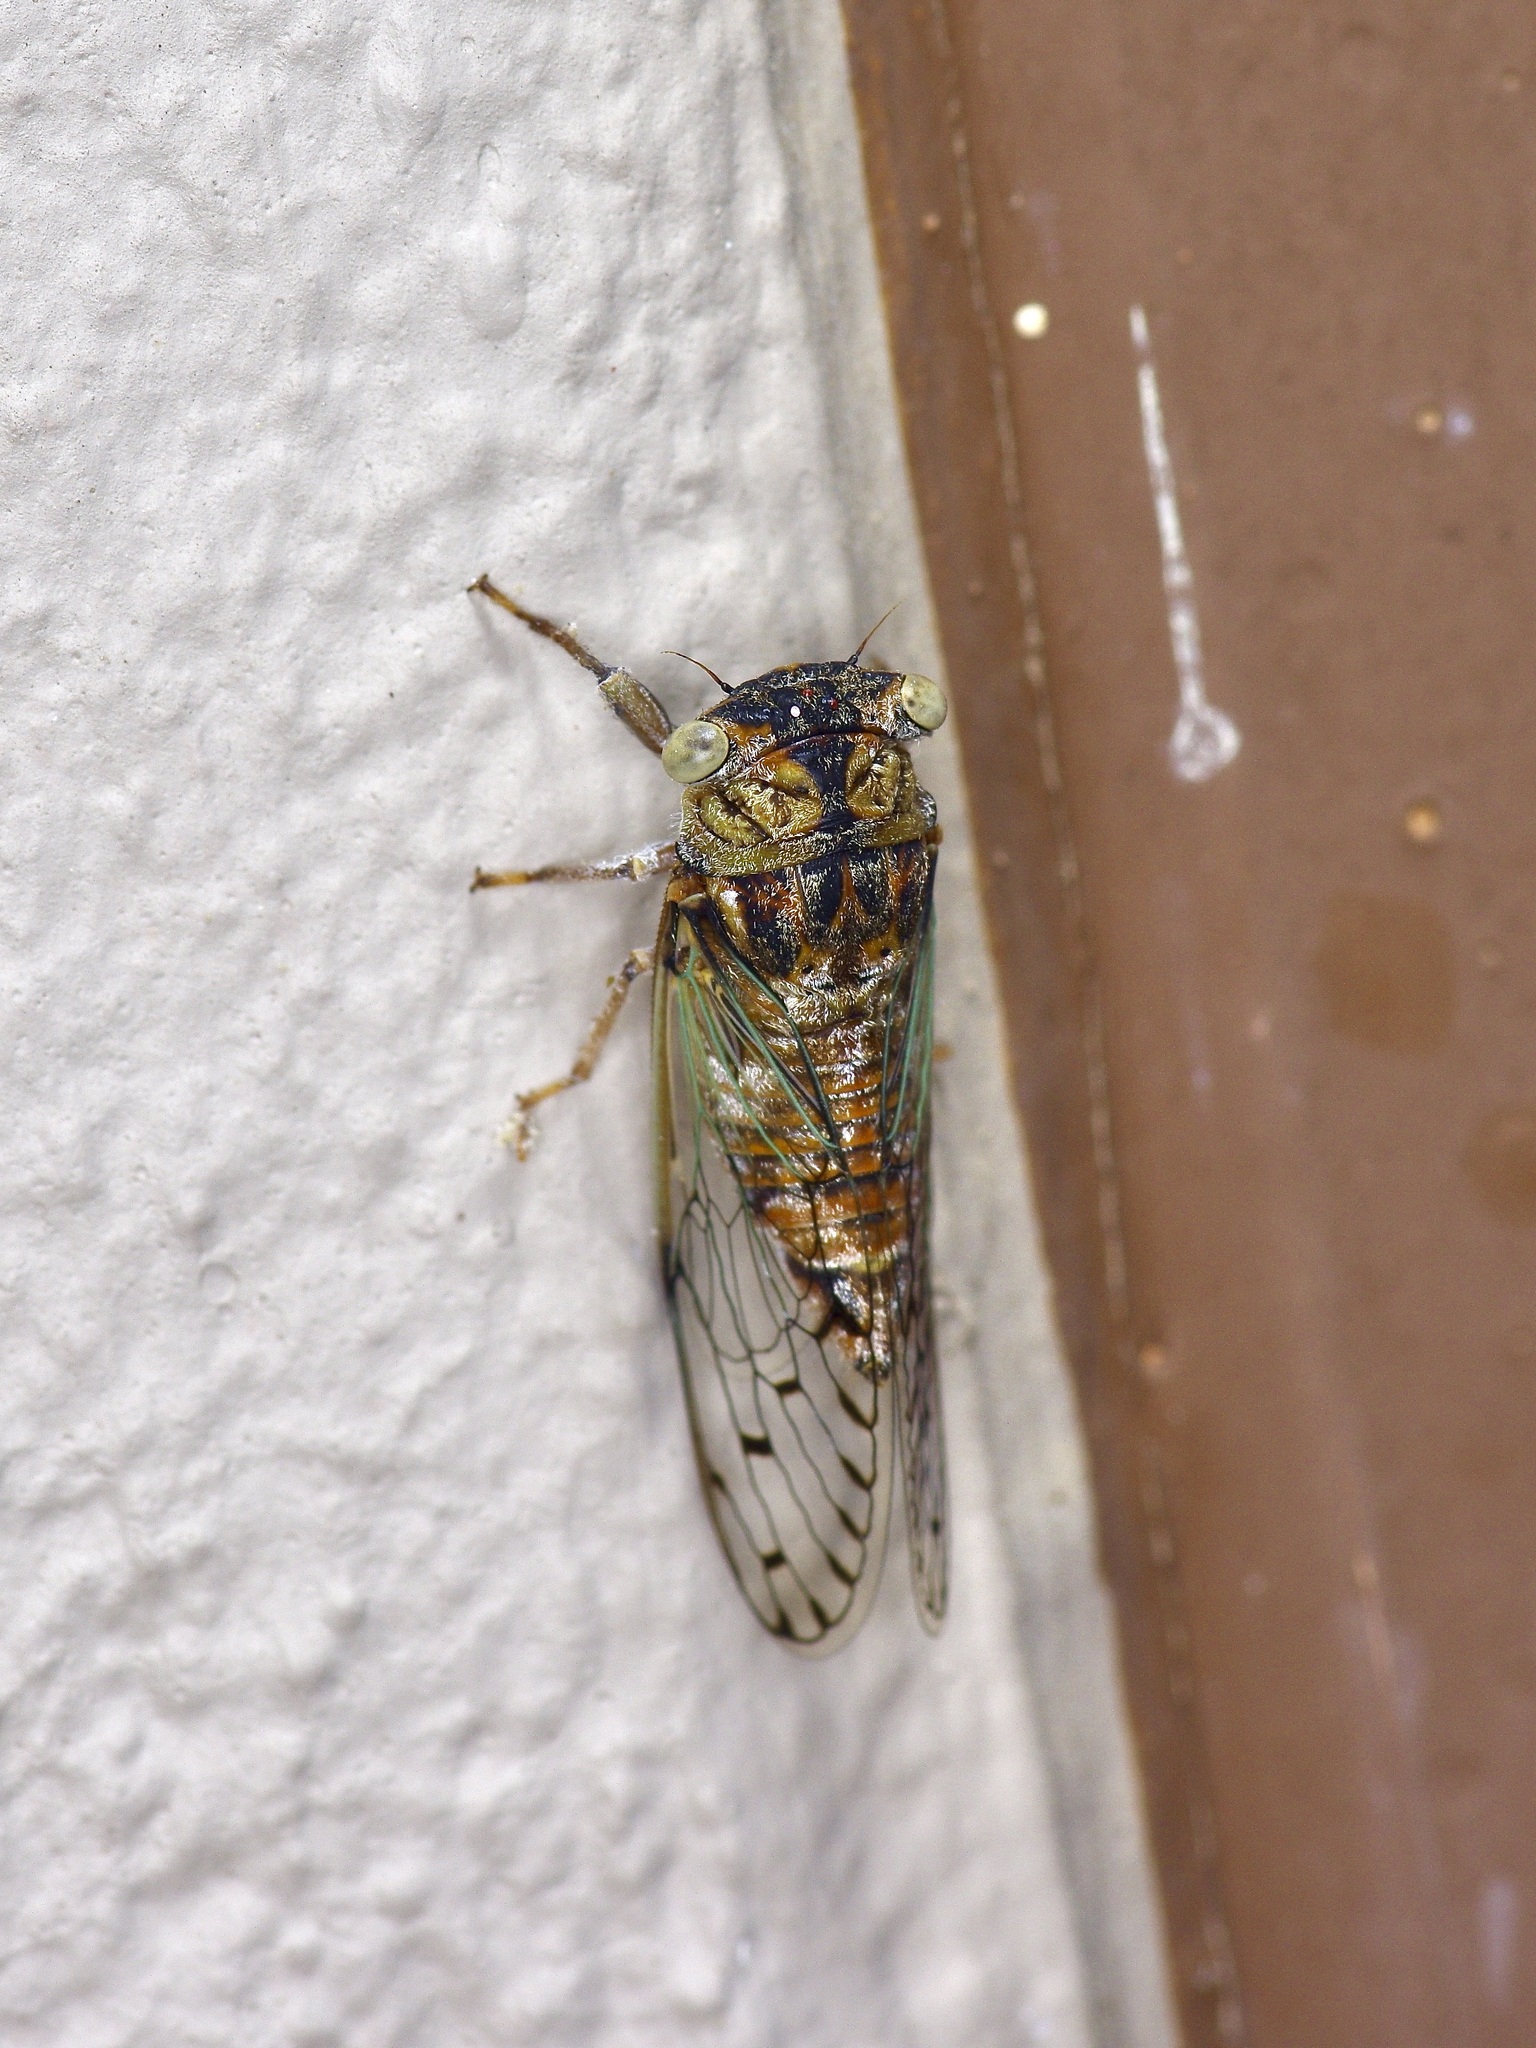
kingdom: Animalia
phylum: Arthropoda
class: Insecta
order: Hemiptera
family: Cicadidae
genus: Pacarina
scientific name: Pacarina puella
